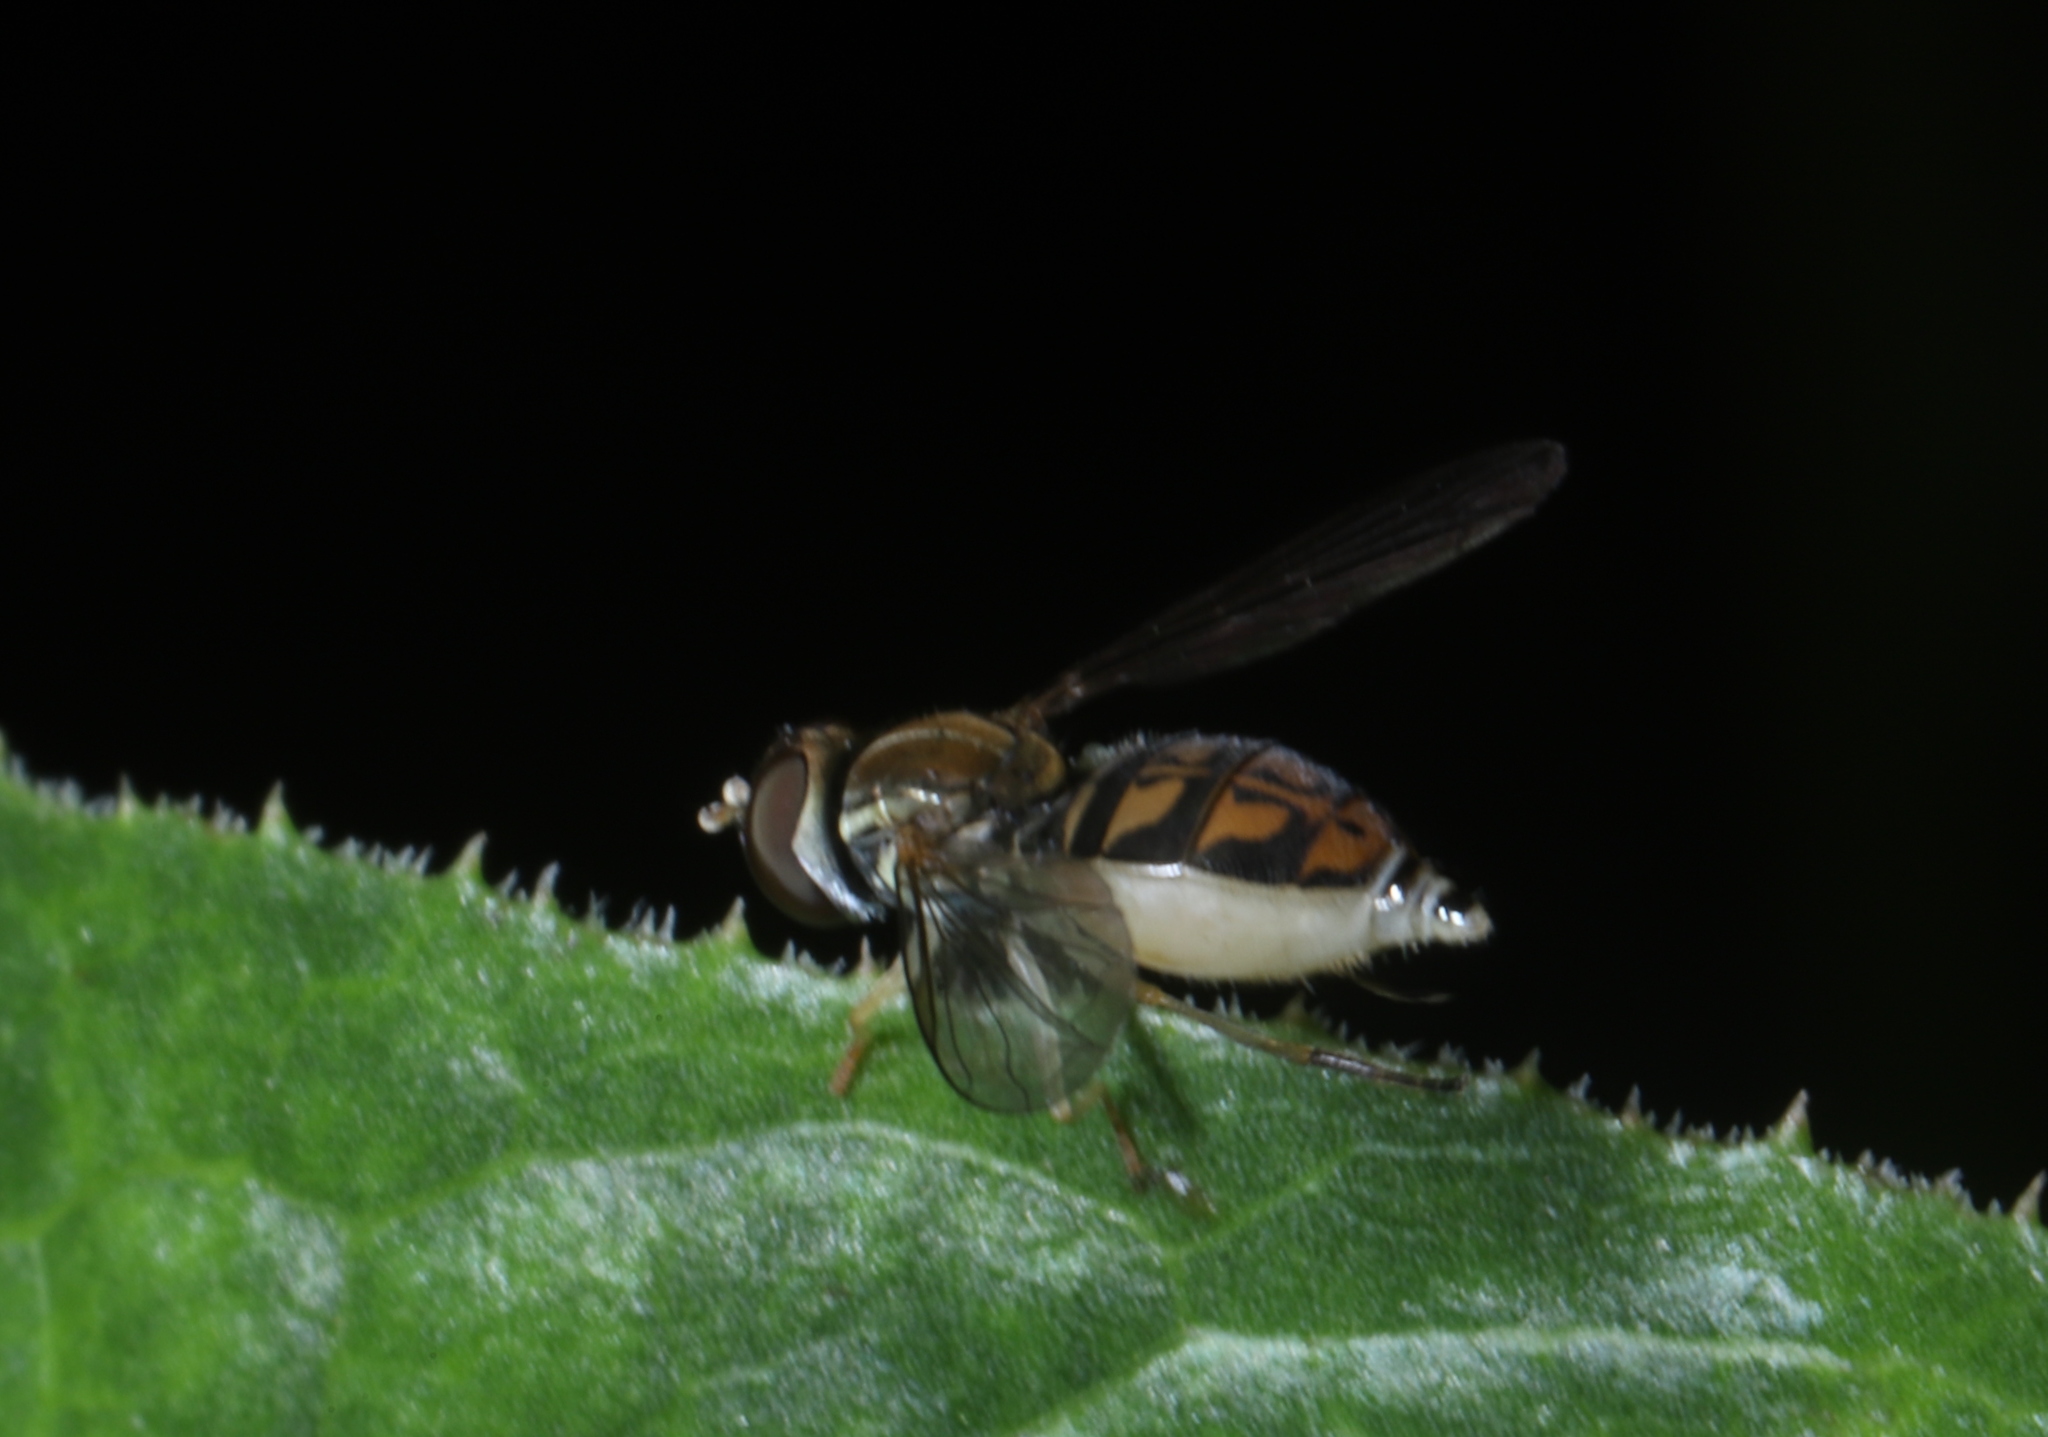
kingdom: Animalia
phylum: Arthropoda
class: Insecta
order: Diptera
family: Syrphidae
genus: Toxomerus
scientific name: Toxomerus marginatus
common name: Syrphid fly
